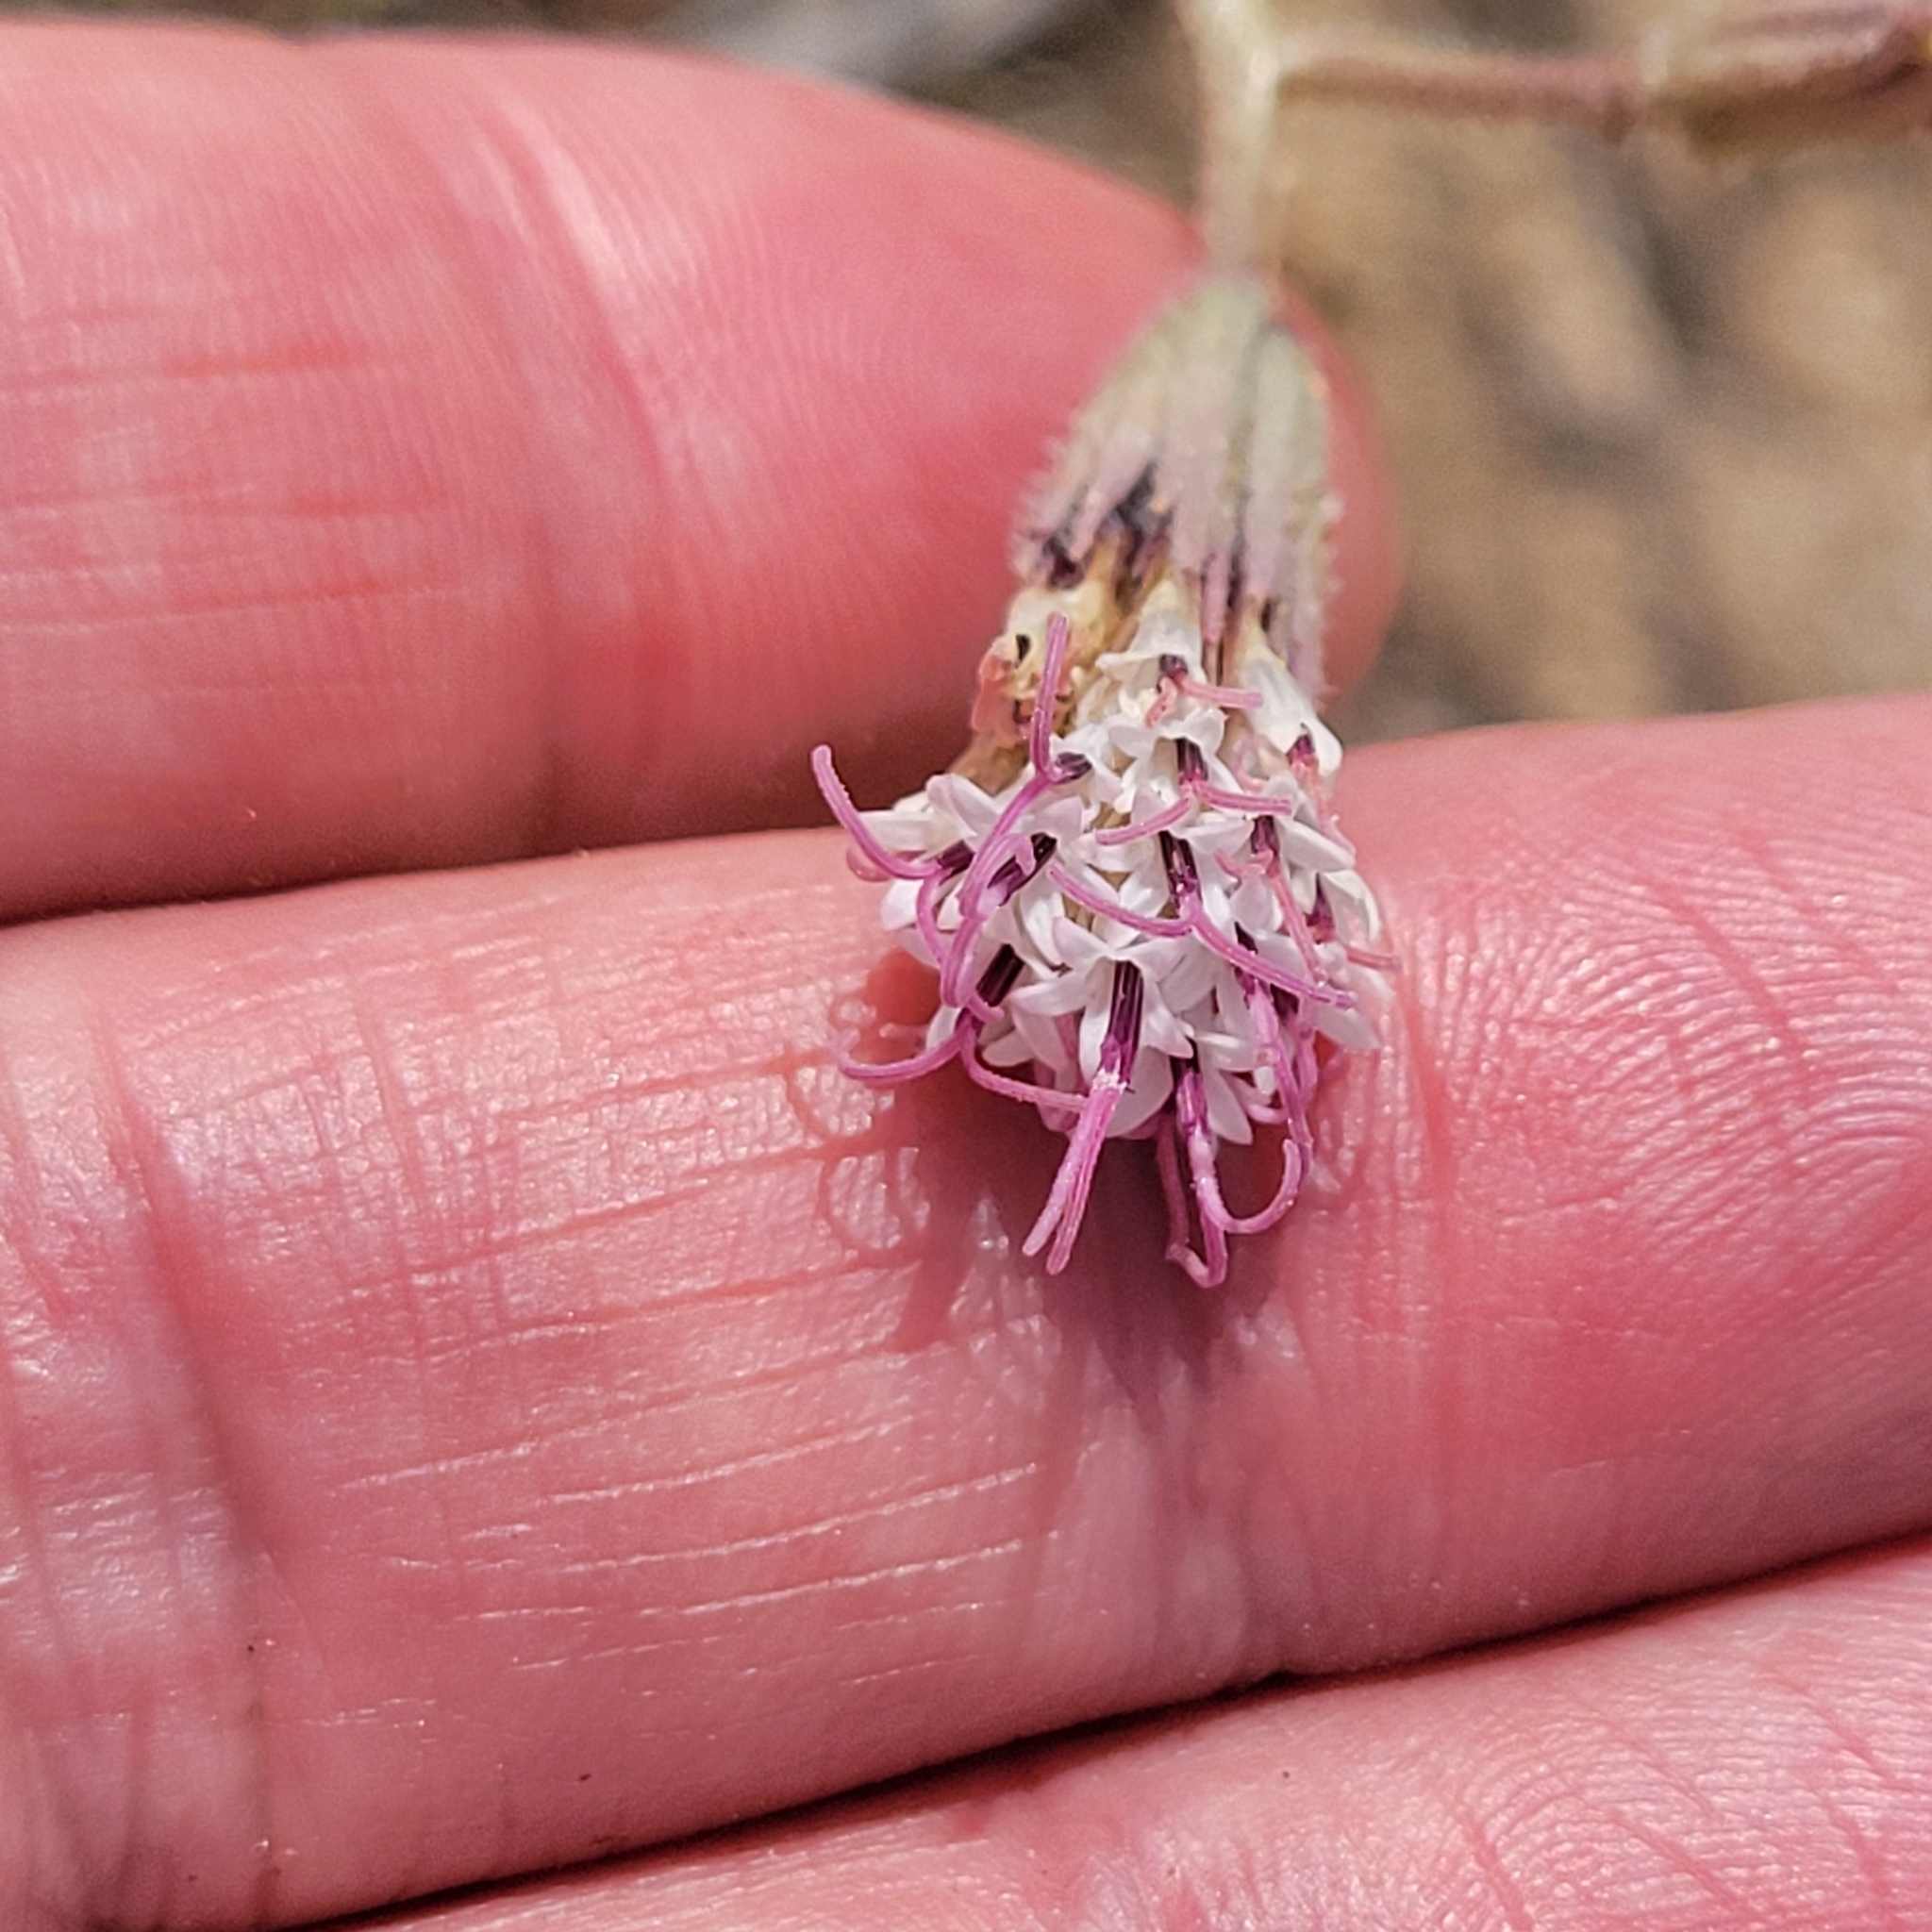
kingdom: Plantae
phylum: Tracheophyta
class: Magnoliopsida
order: Asterales
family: Asteraceae
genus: Palafoxia
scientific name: Palafoxia arida
